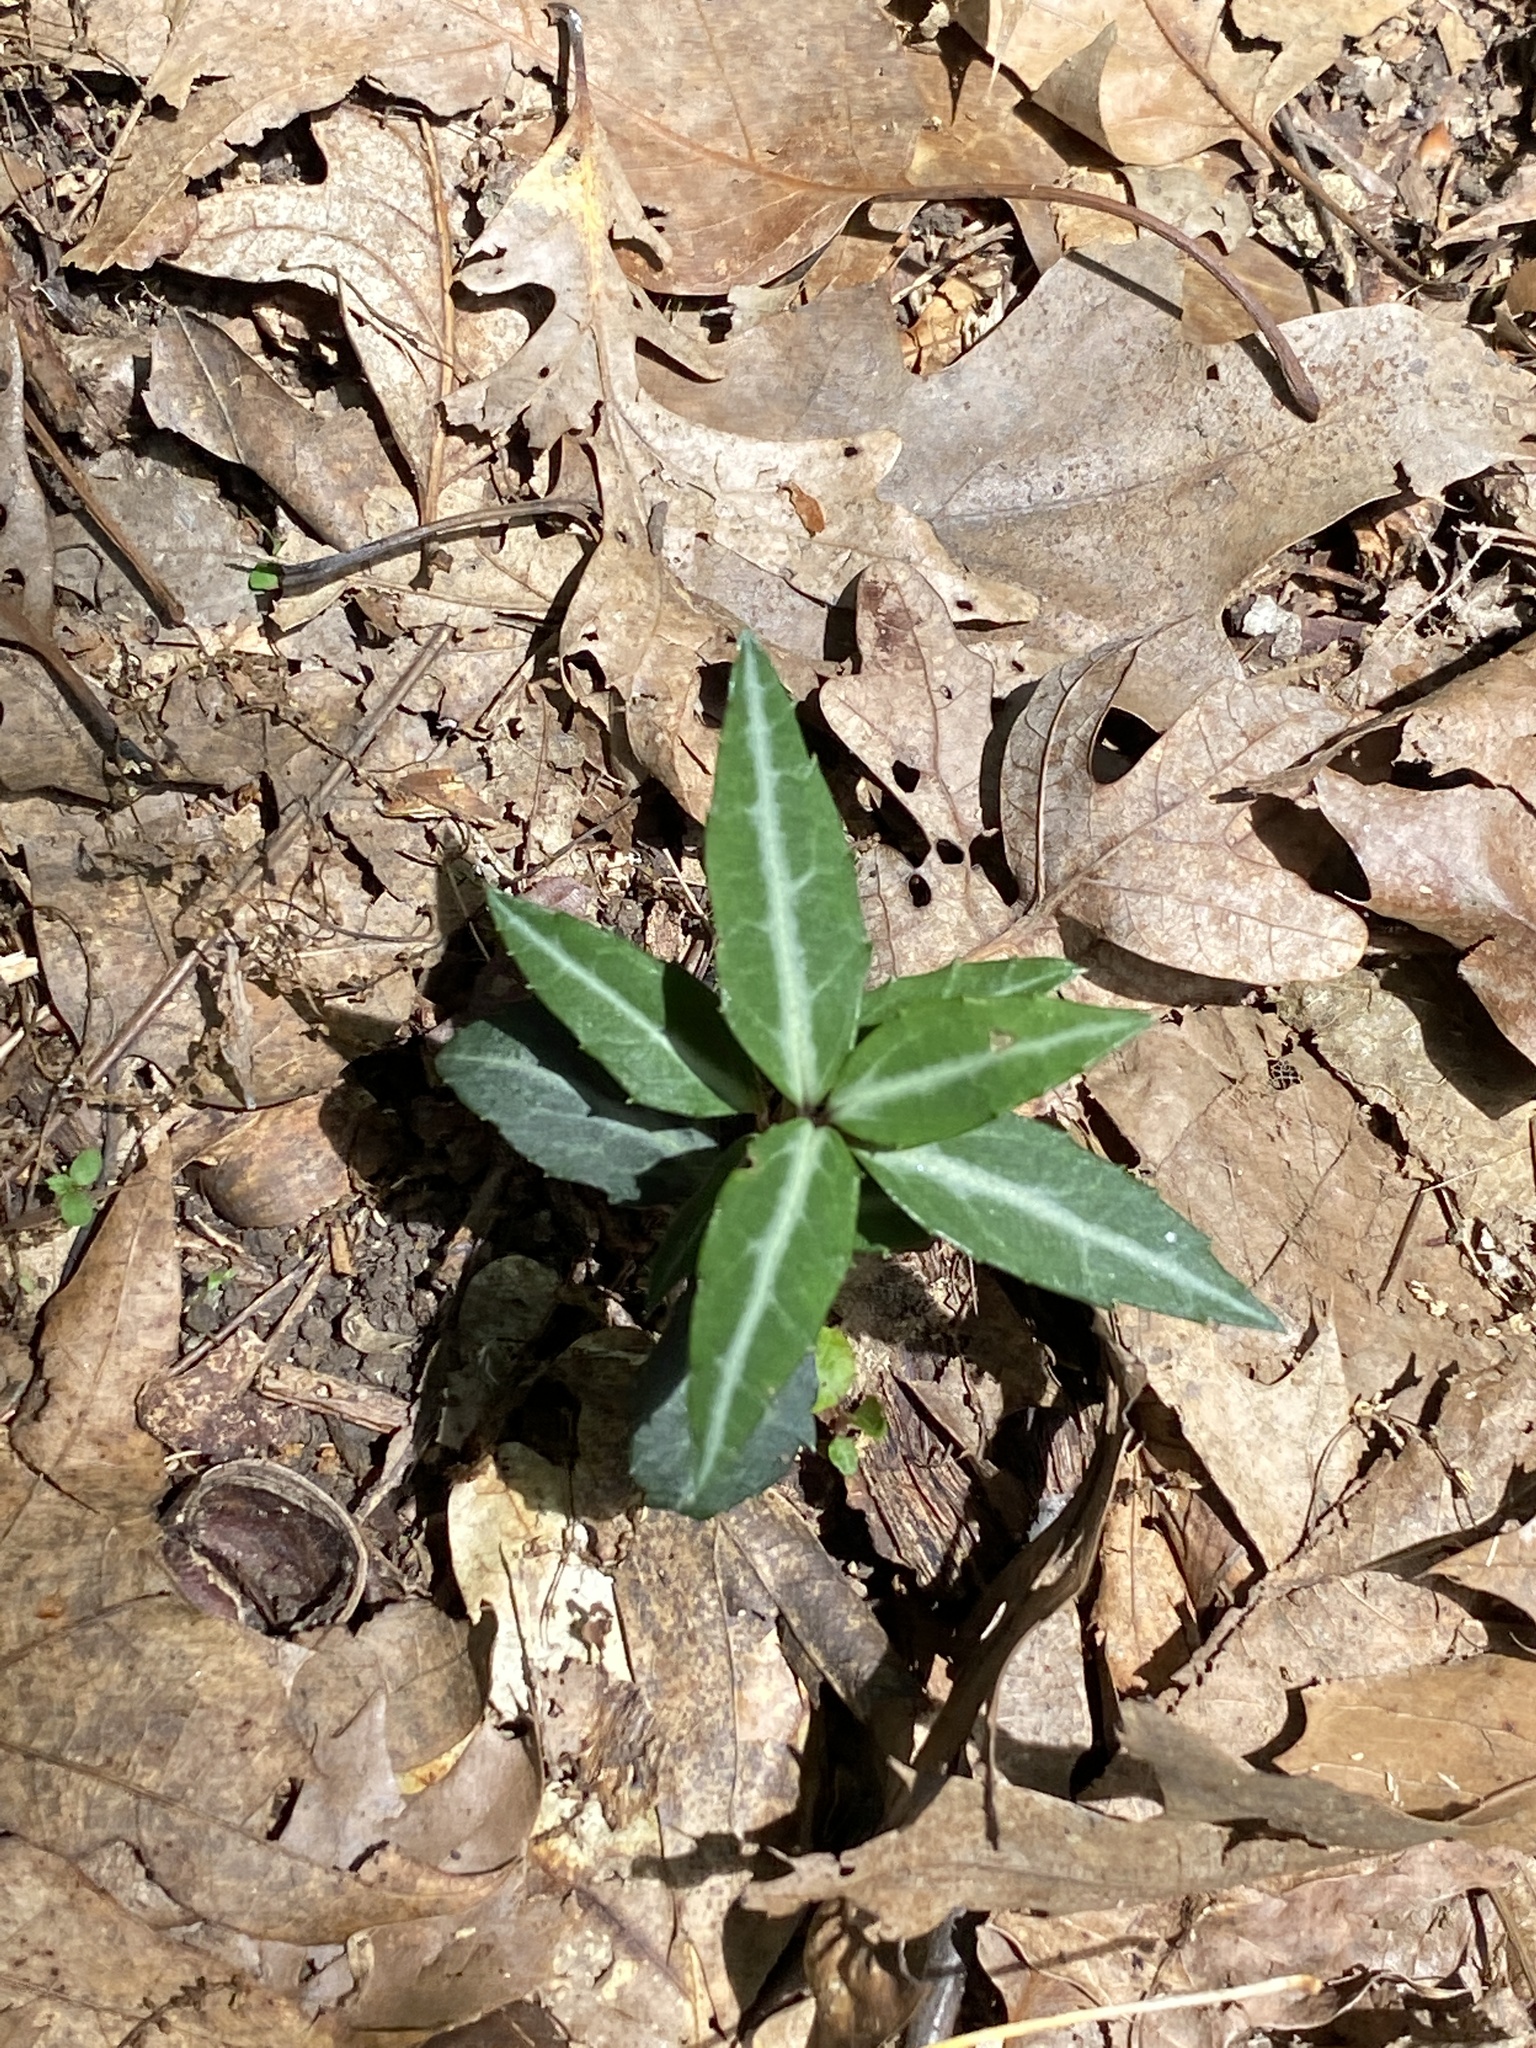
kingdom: Plantae
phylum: Tracheophyta
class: Magnoliopsida
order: Ericales
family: Ericaceae
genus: Chimaphila
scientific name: Chimaphila maculata
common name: Spotted pipsissewa
